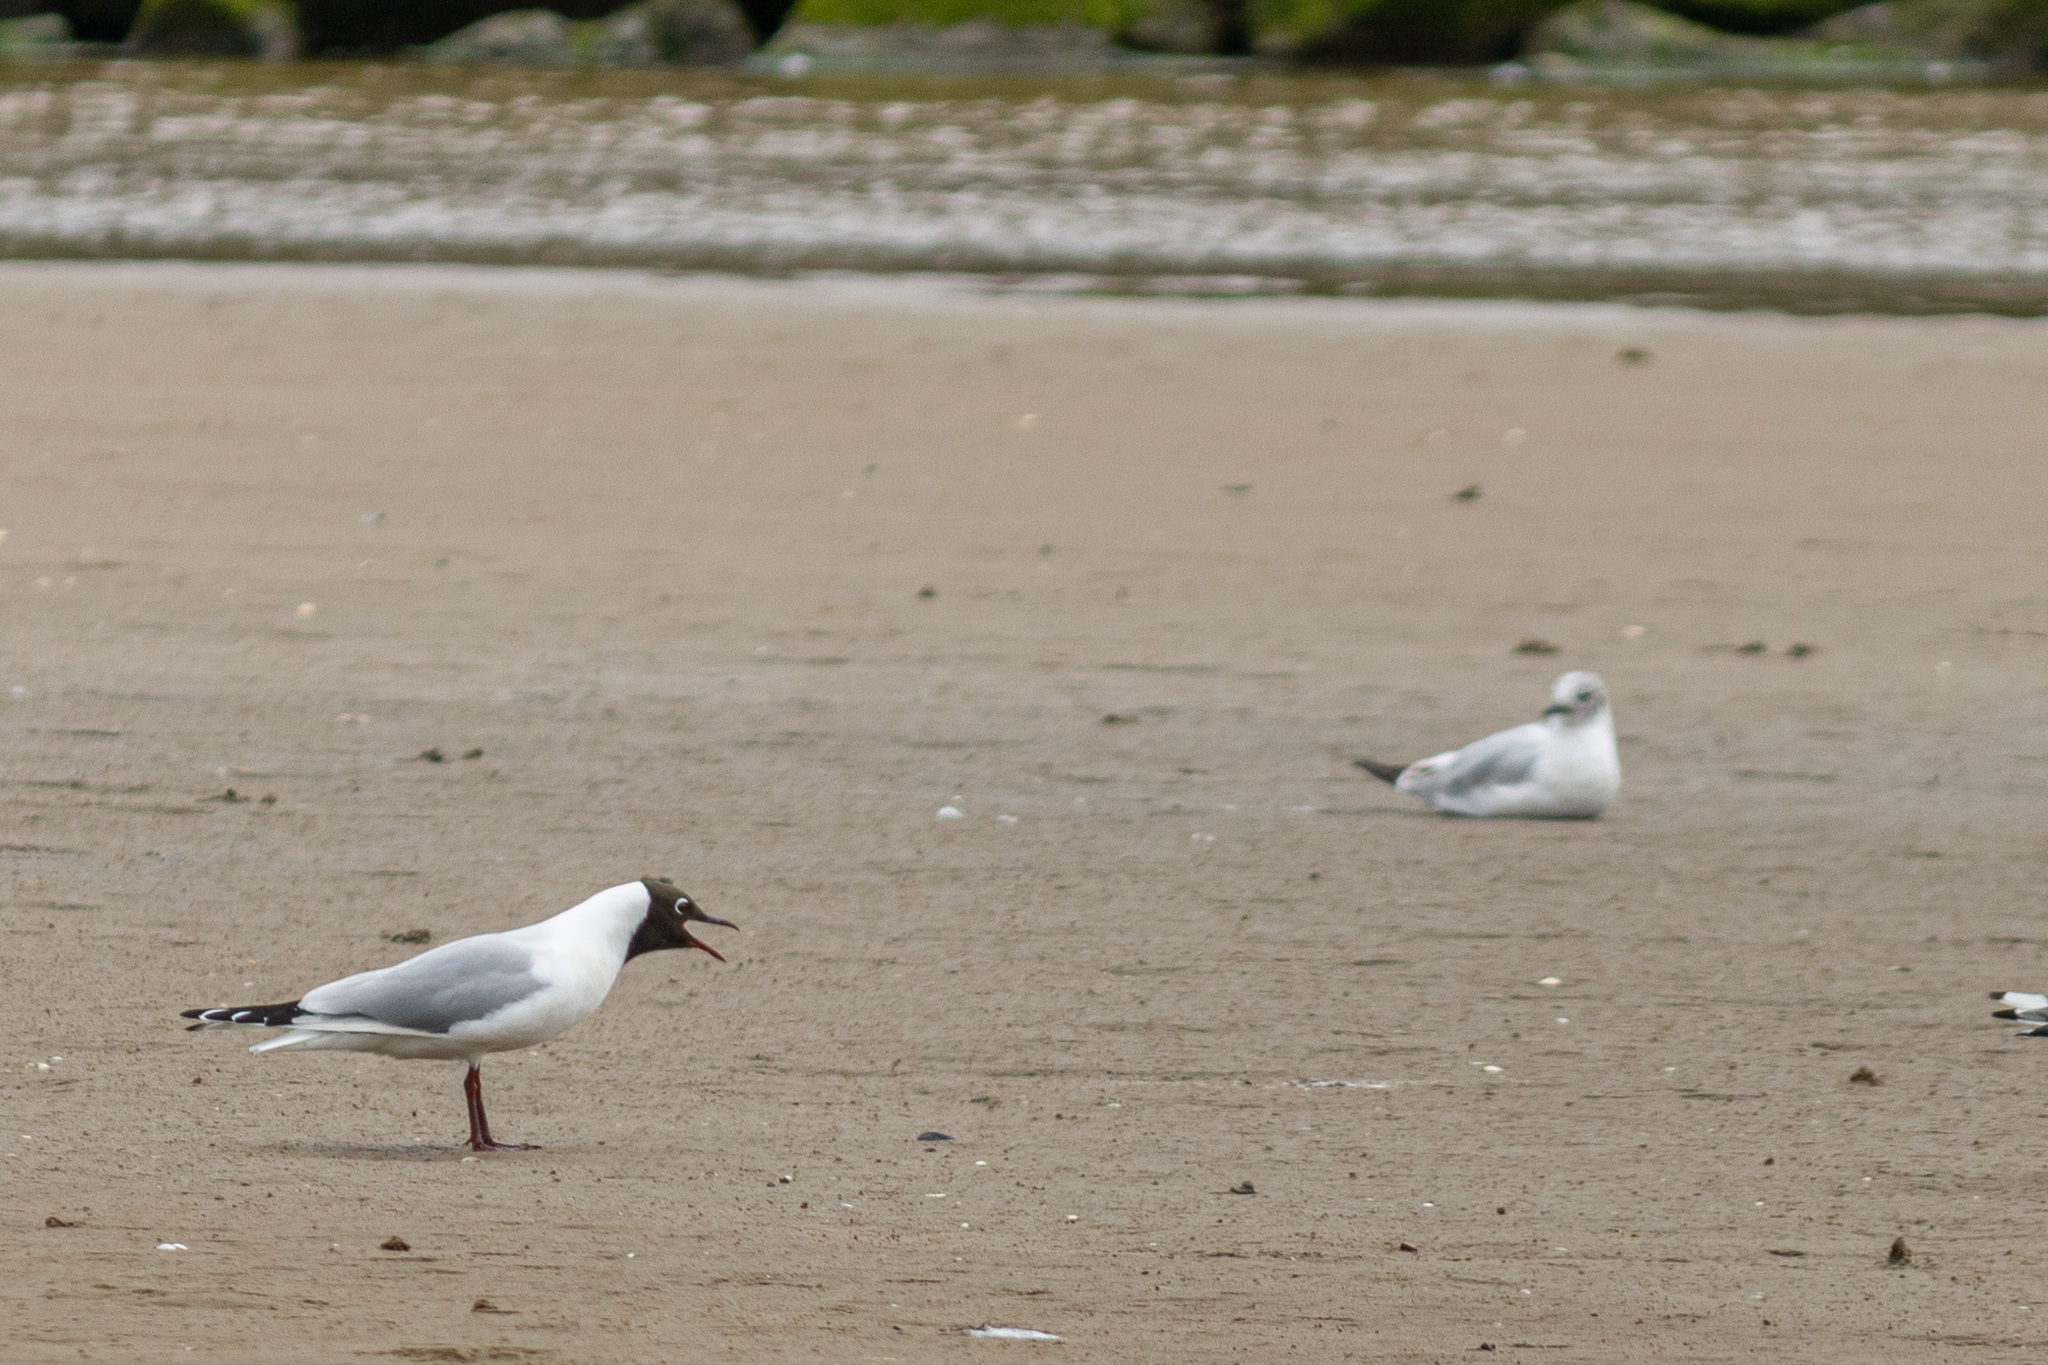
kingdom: Animalia
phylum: Chordata
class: Aves
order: Charadriiformes
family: Laridae
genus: Chroicocephalus
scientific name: Chroicocephalus ridibundus
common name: Black-headed gull
